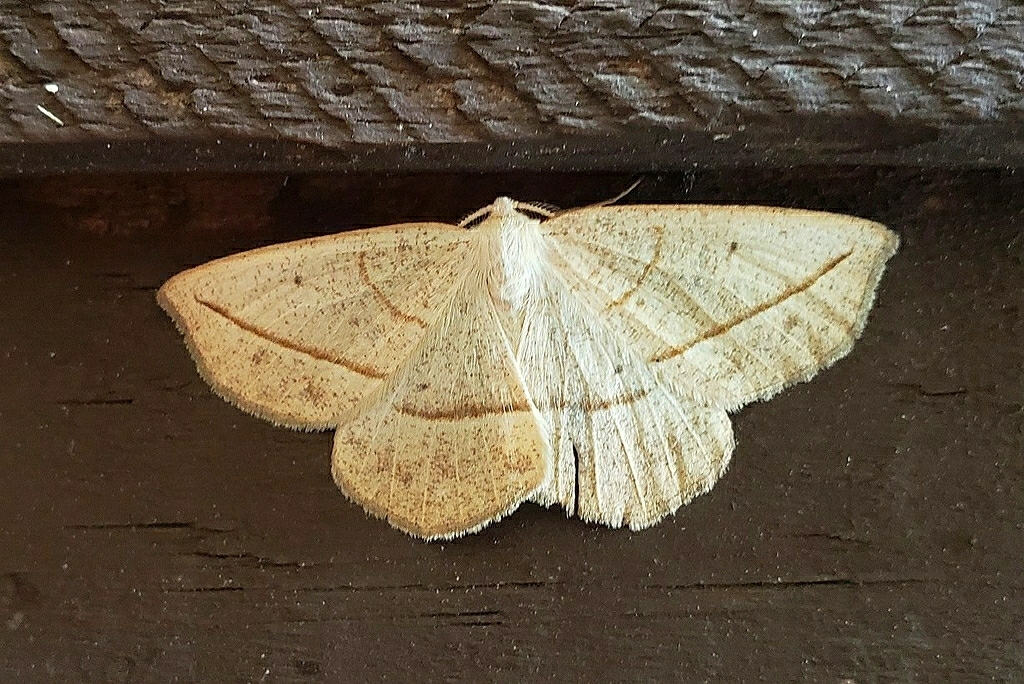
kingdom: Animalia
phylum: Arthropoda
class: Insecta
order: Lepidoptera
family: Geometridae
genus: Eusarca
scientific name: Eusarca confusaria
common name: Confused eusarca
